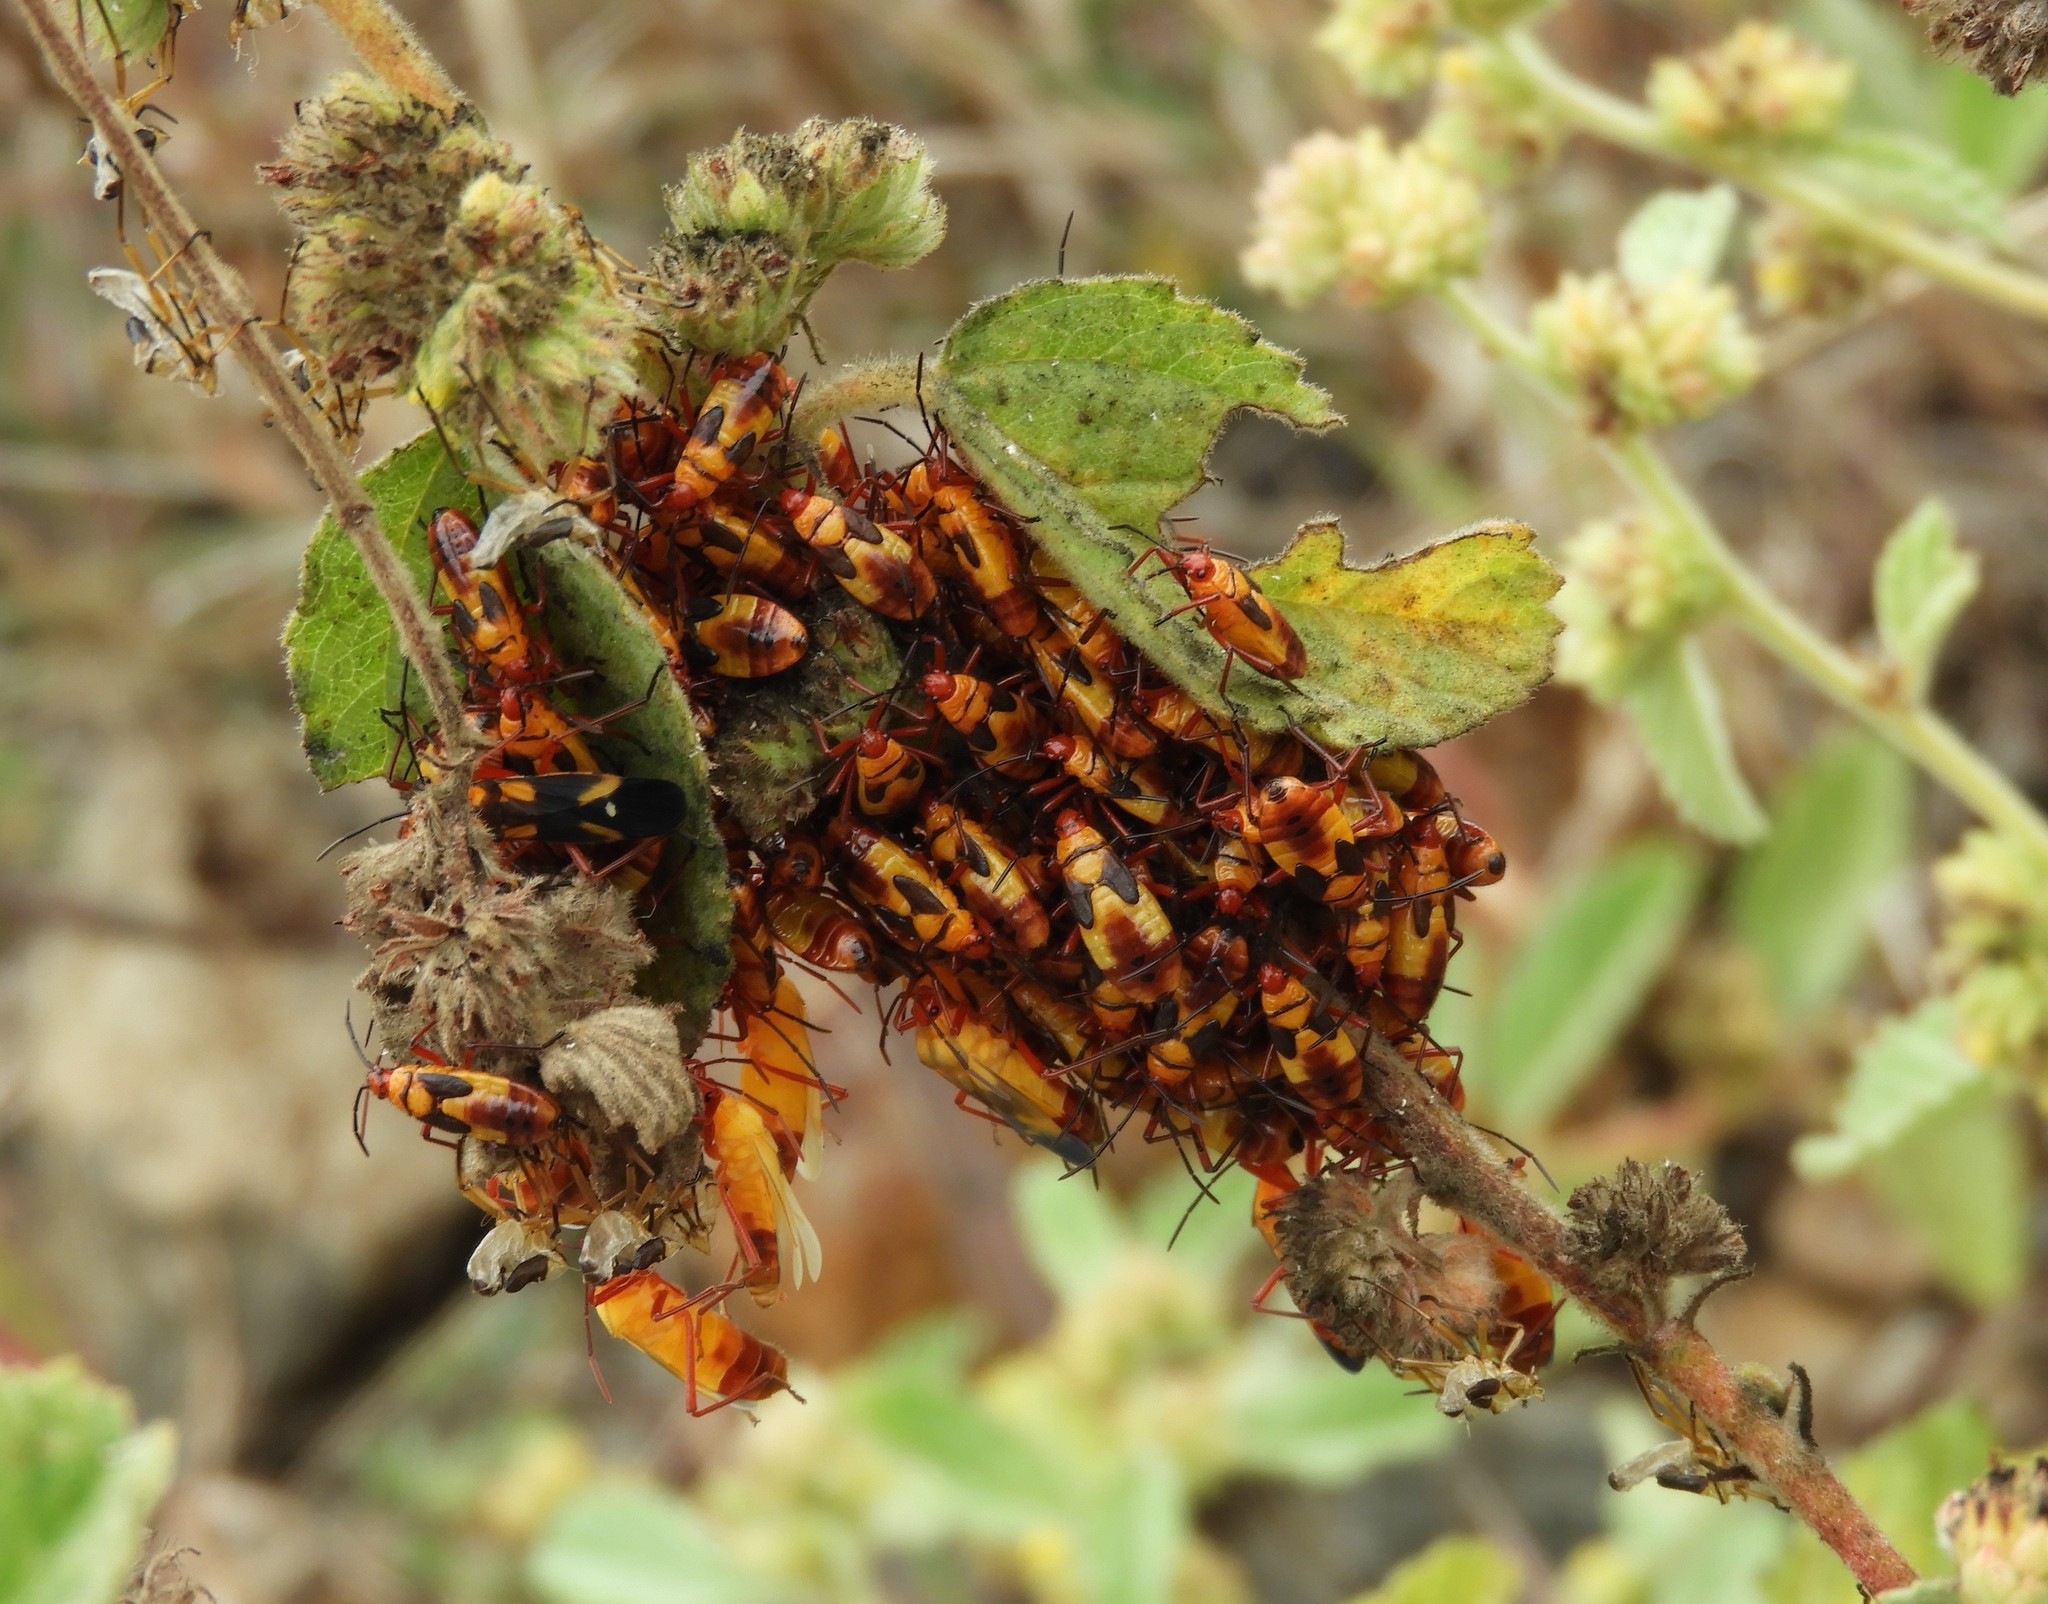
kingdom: Animalia
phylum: Arthropoda
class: Insecta
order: Hemiptera
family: Lygaeidae
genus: Oncopeltus
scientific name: Oncopeltus guttaloides
